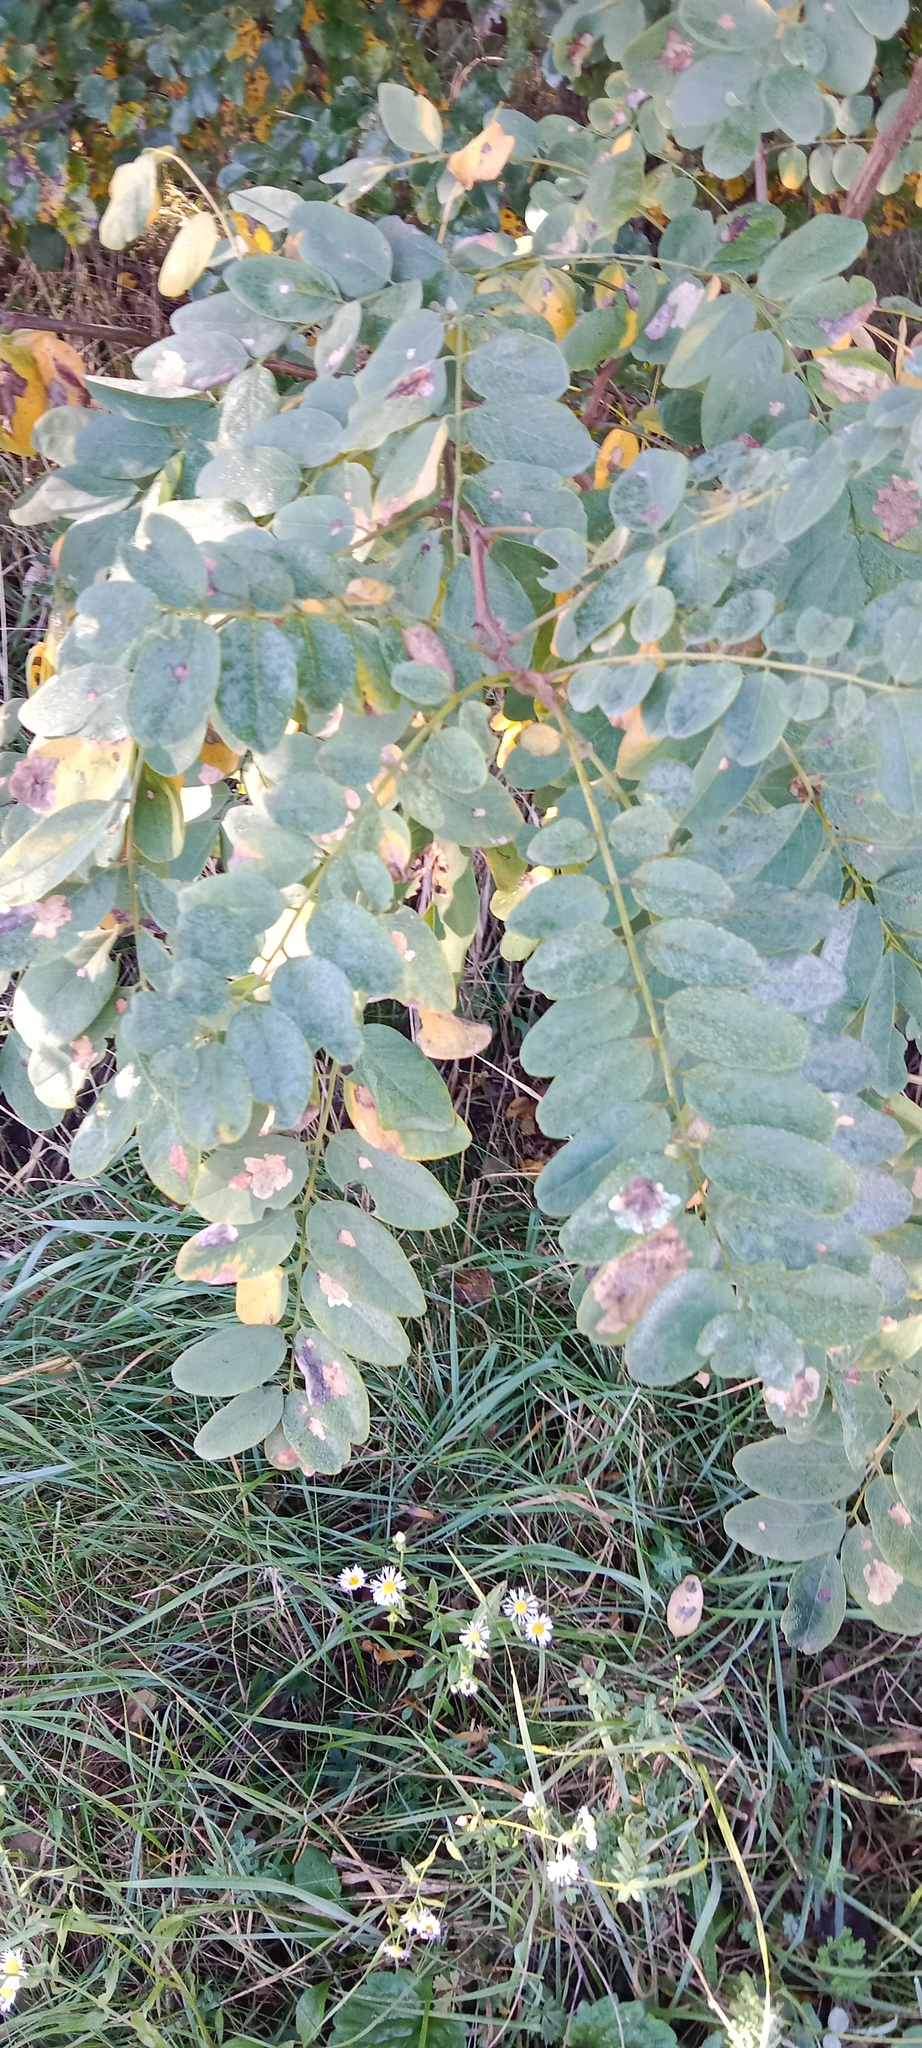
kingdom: Animalia
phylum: Arthropoda
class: Insecta
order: Lepidoptera
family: Gracillariidae
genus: Parectopa
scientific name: Parectopa robiniella
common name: Locust digitate leafminer
